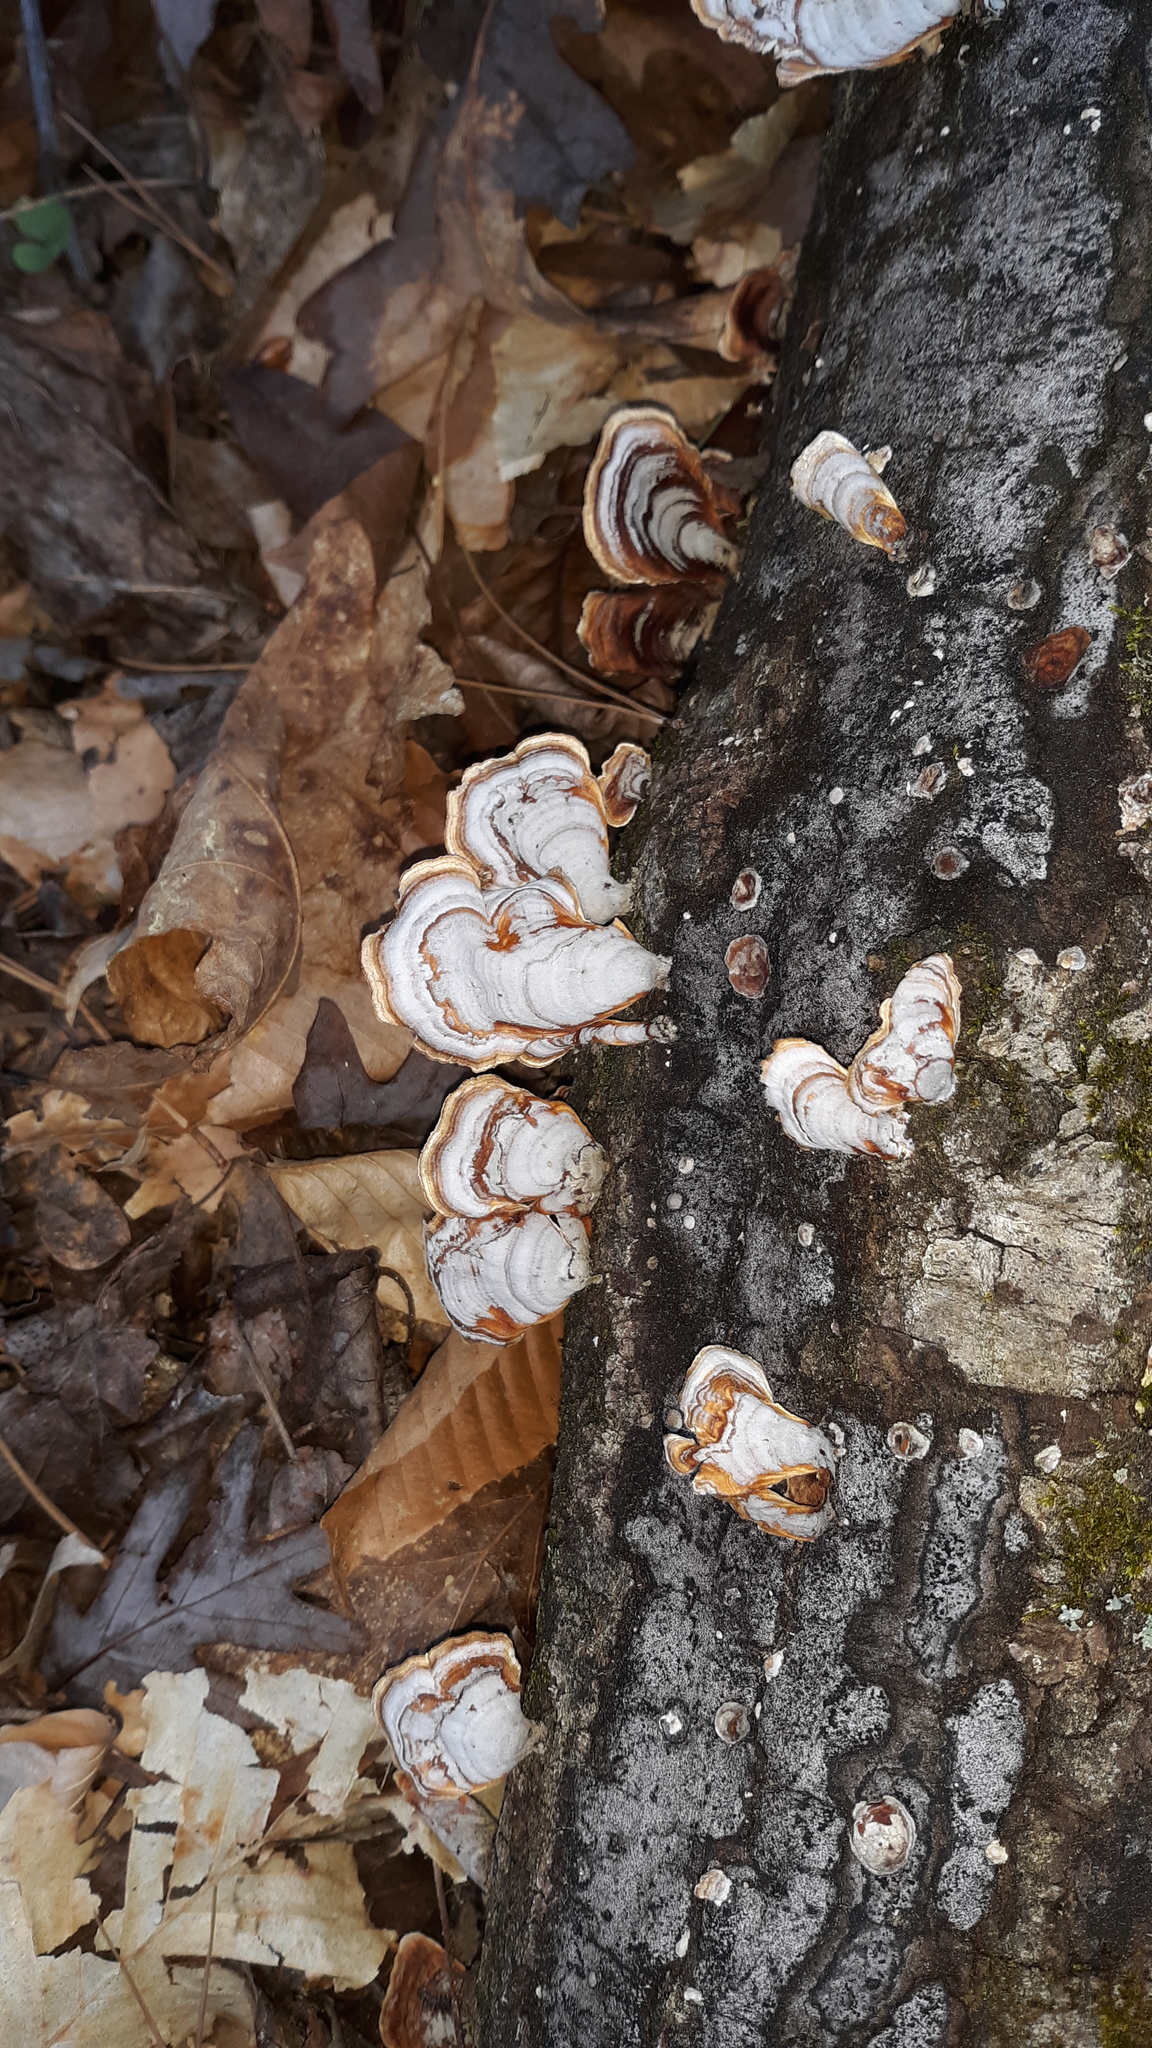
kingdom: Fungi
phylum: Basidiomycota
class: Agaricomycetes
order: Russulales
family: Stereaceae
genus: Stereum
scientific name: Stereum lobatum
